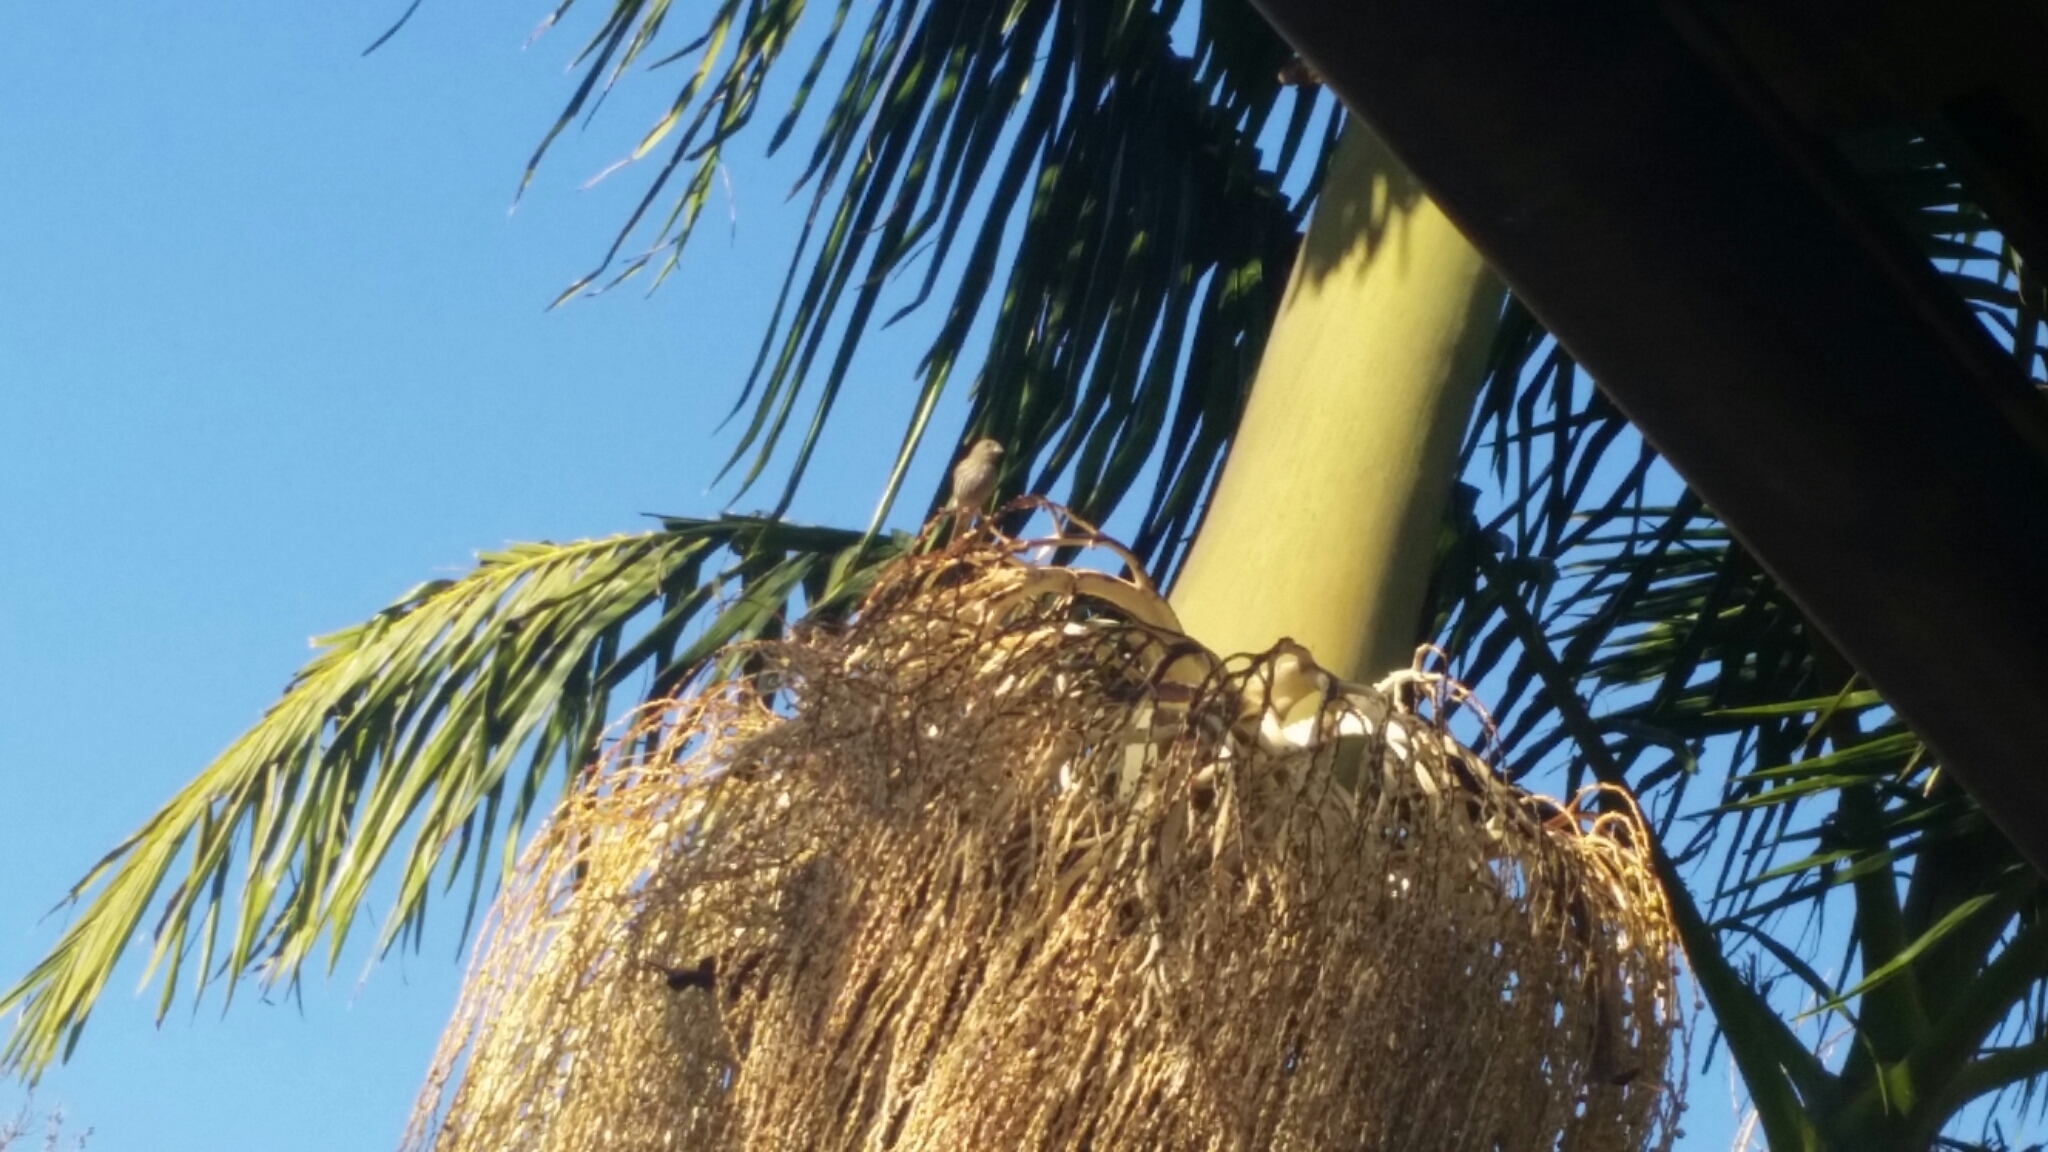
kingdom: Animalia
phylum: Chordata
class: Aves
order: Passeriformes
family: Fringillidae
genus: Haemorhous
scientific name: Haemorhous mexicanus
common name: House finch
